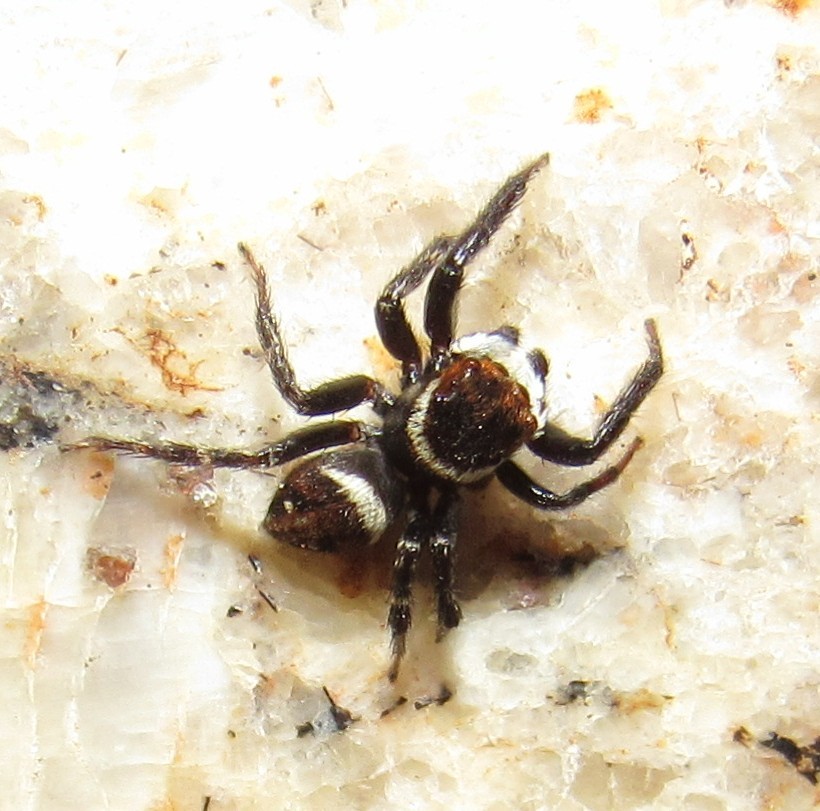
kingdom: Animalia
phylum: Arthropoda
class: Arachnida
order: Araneae
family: Salticidae
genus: Hasarius
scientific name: Hasarius adansoni
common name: Jumping spider
